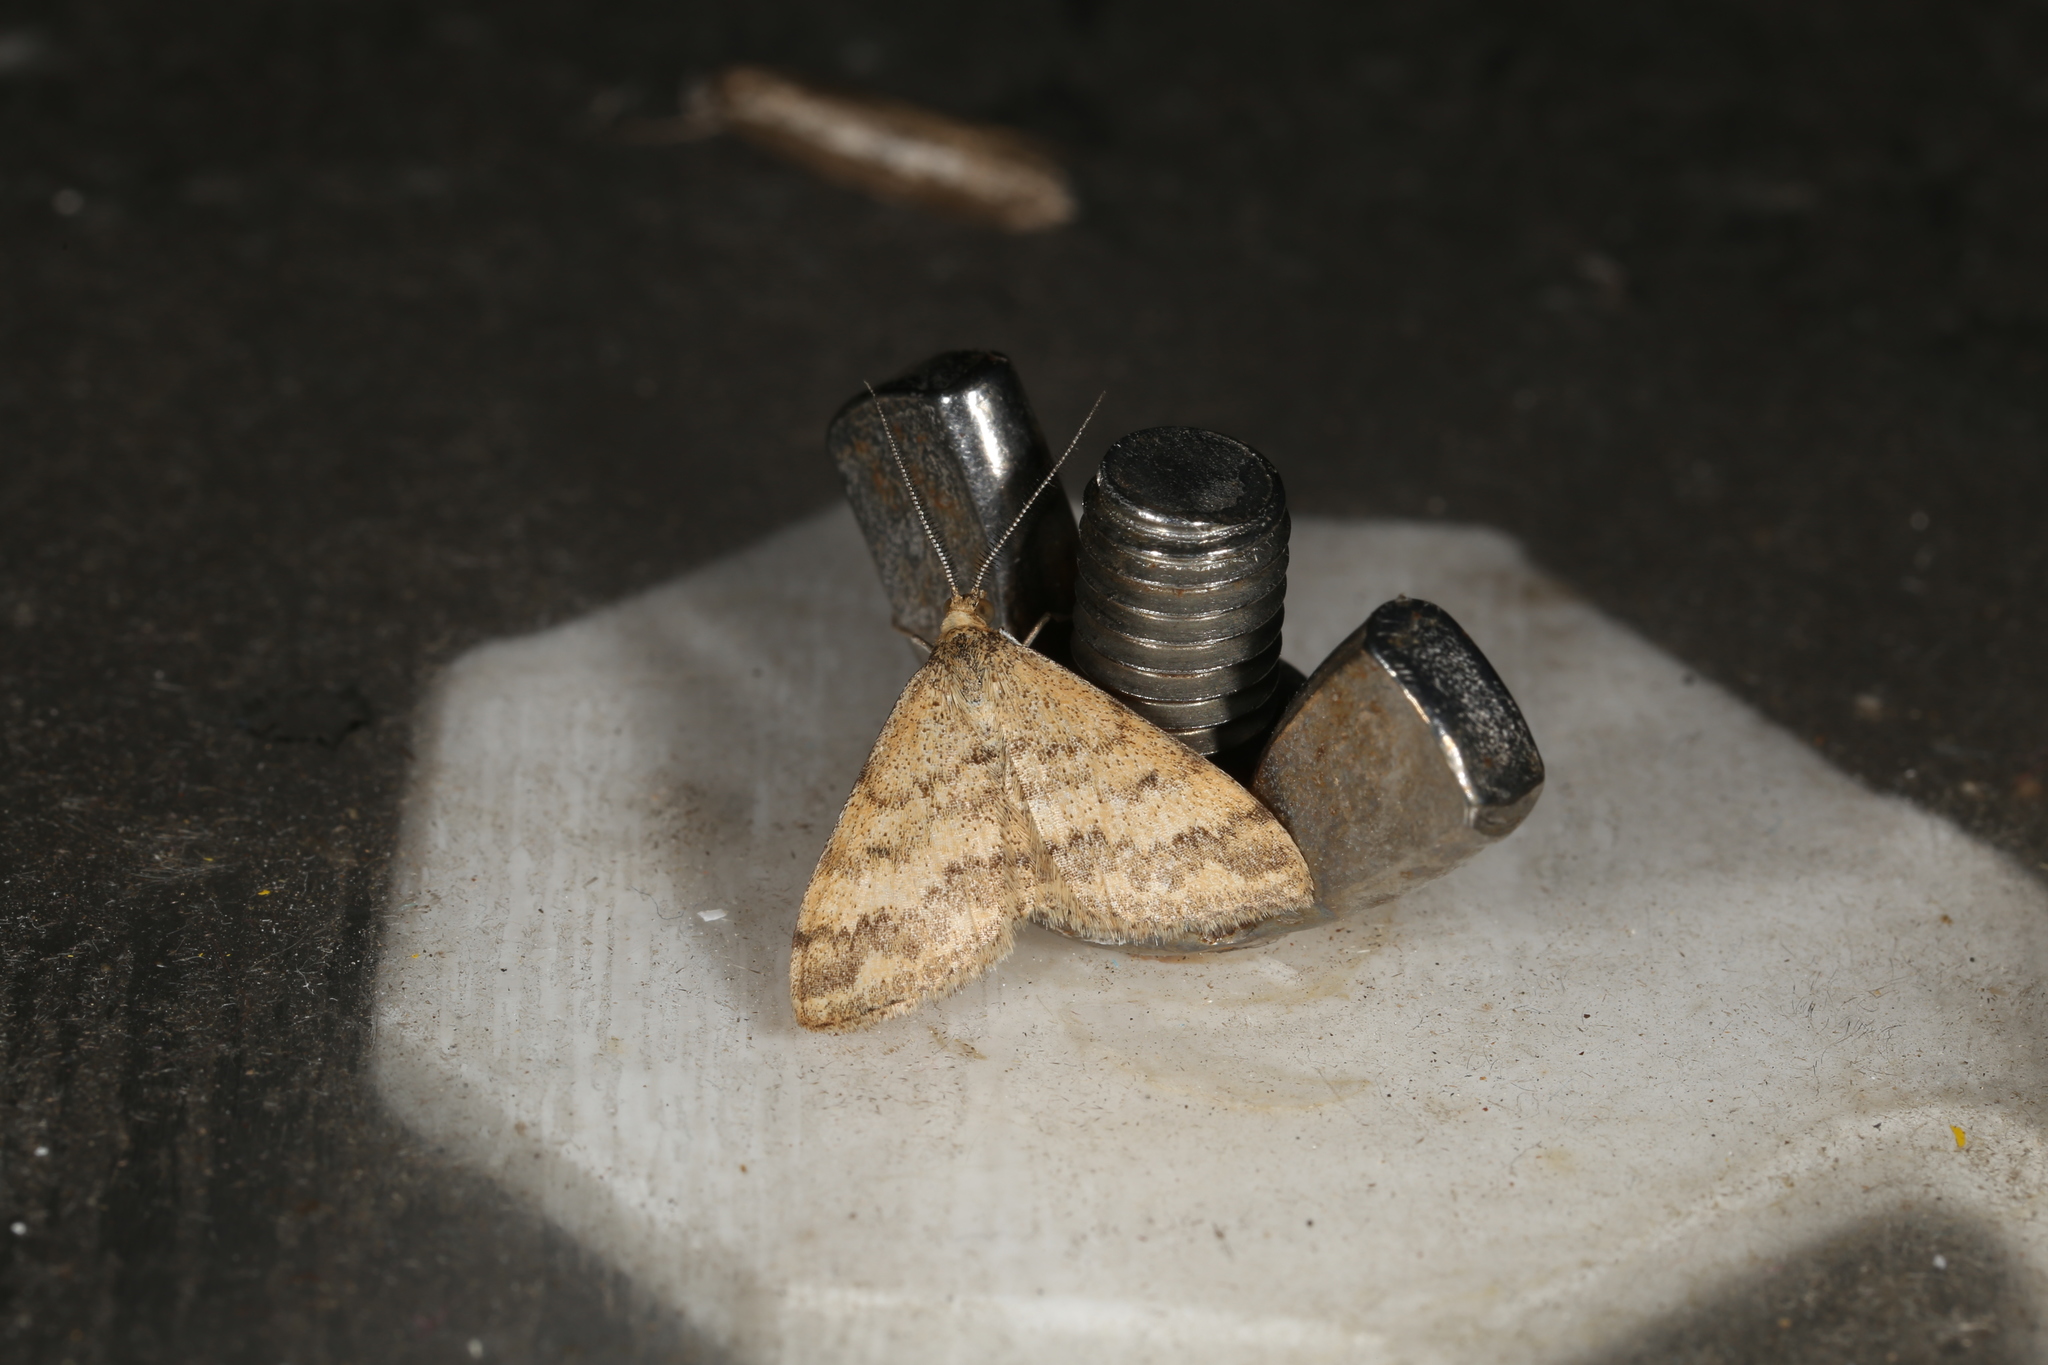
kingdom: Animalia
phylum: Arthropoda
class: Insecta
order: Lepidoptera
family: Geometridae
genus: Scopula
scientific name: Scopula rubraria
